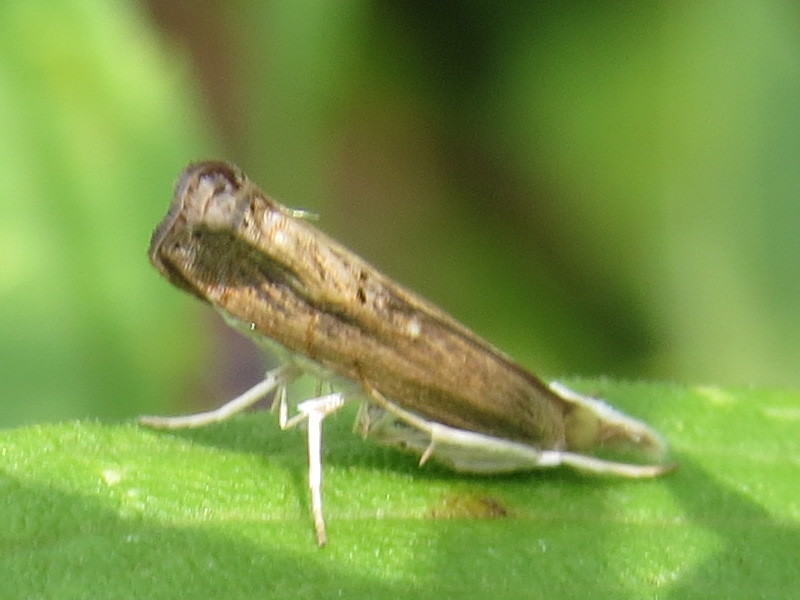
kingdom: Animalia
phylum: Arthropoda
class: Insecta
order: Lepidoptera
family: Crambidae
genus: Parapediasia
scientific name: Parapediasia teterellus
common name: Bluegrass webworm moth
